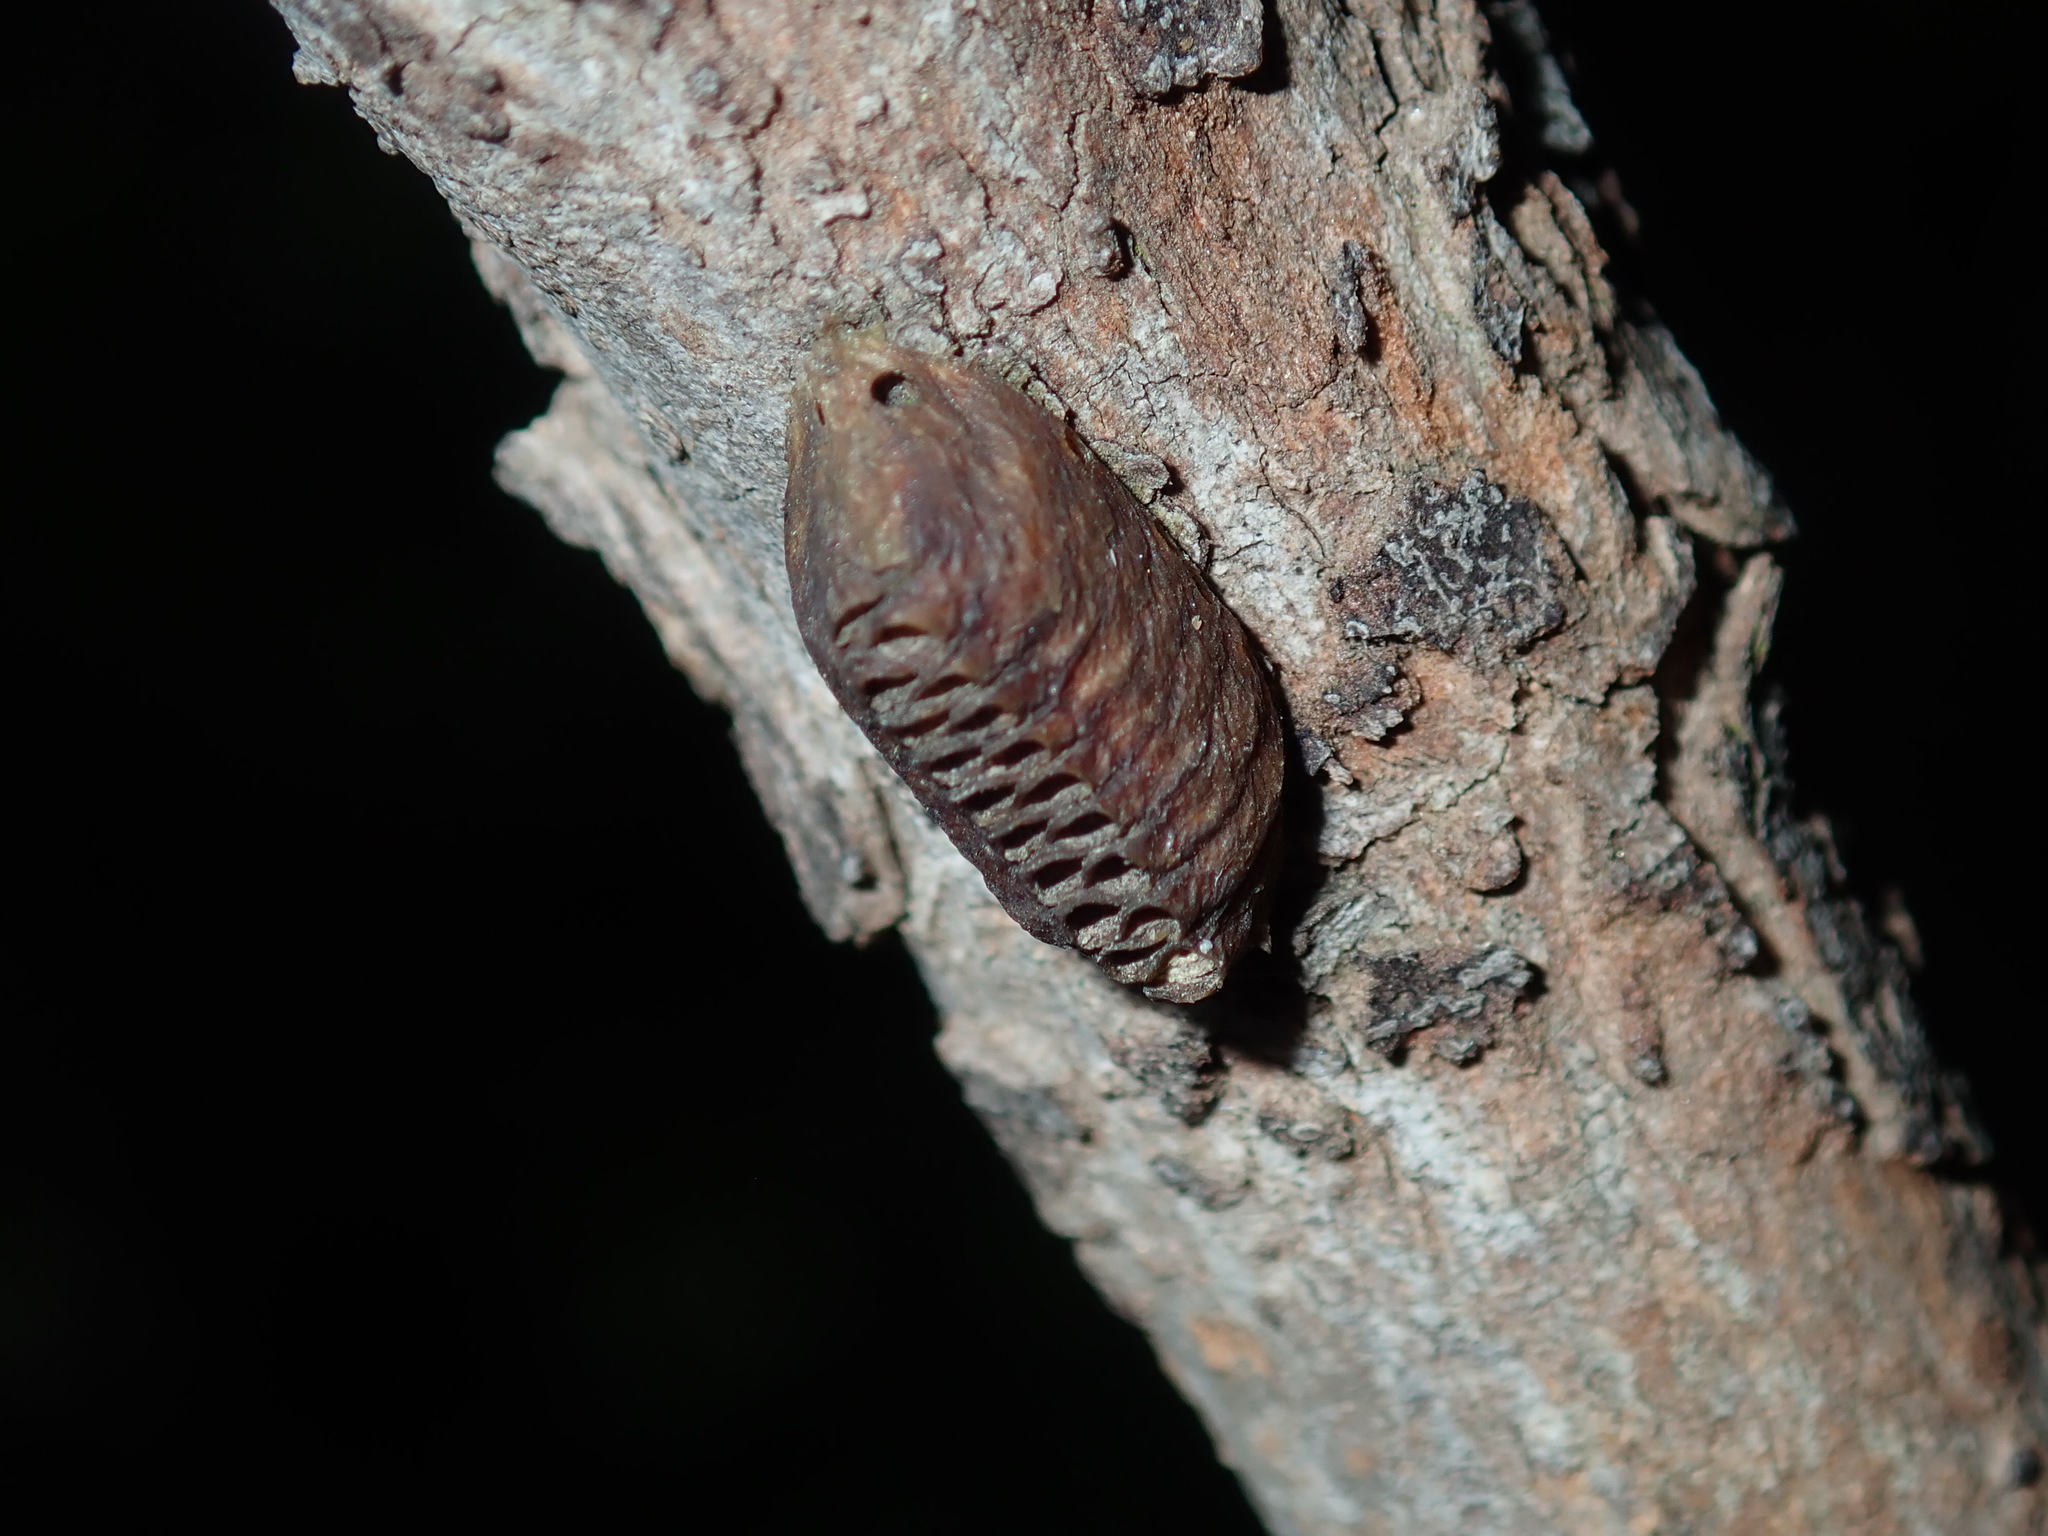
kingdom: Animalia
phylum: Arthropoda
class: Insecta
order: Mantodea
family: Mantidae
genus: Orthodera
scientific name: Orthodera ministralis
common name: Mantis
